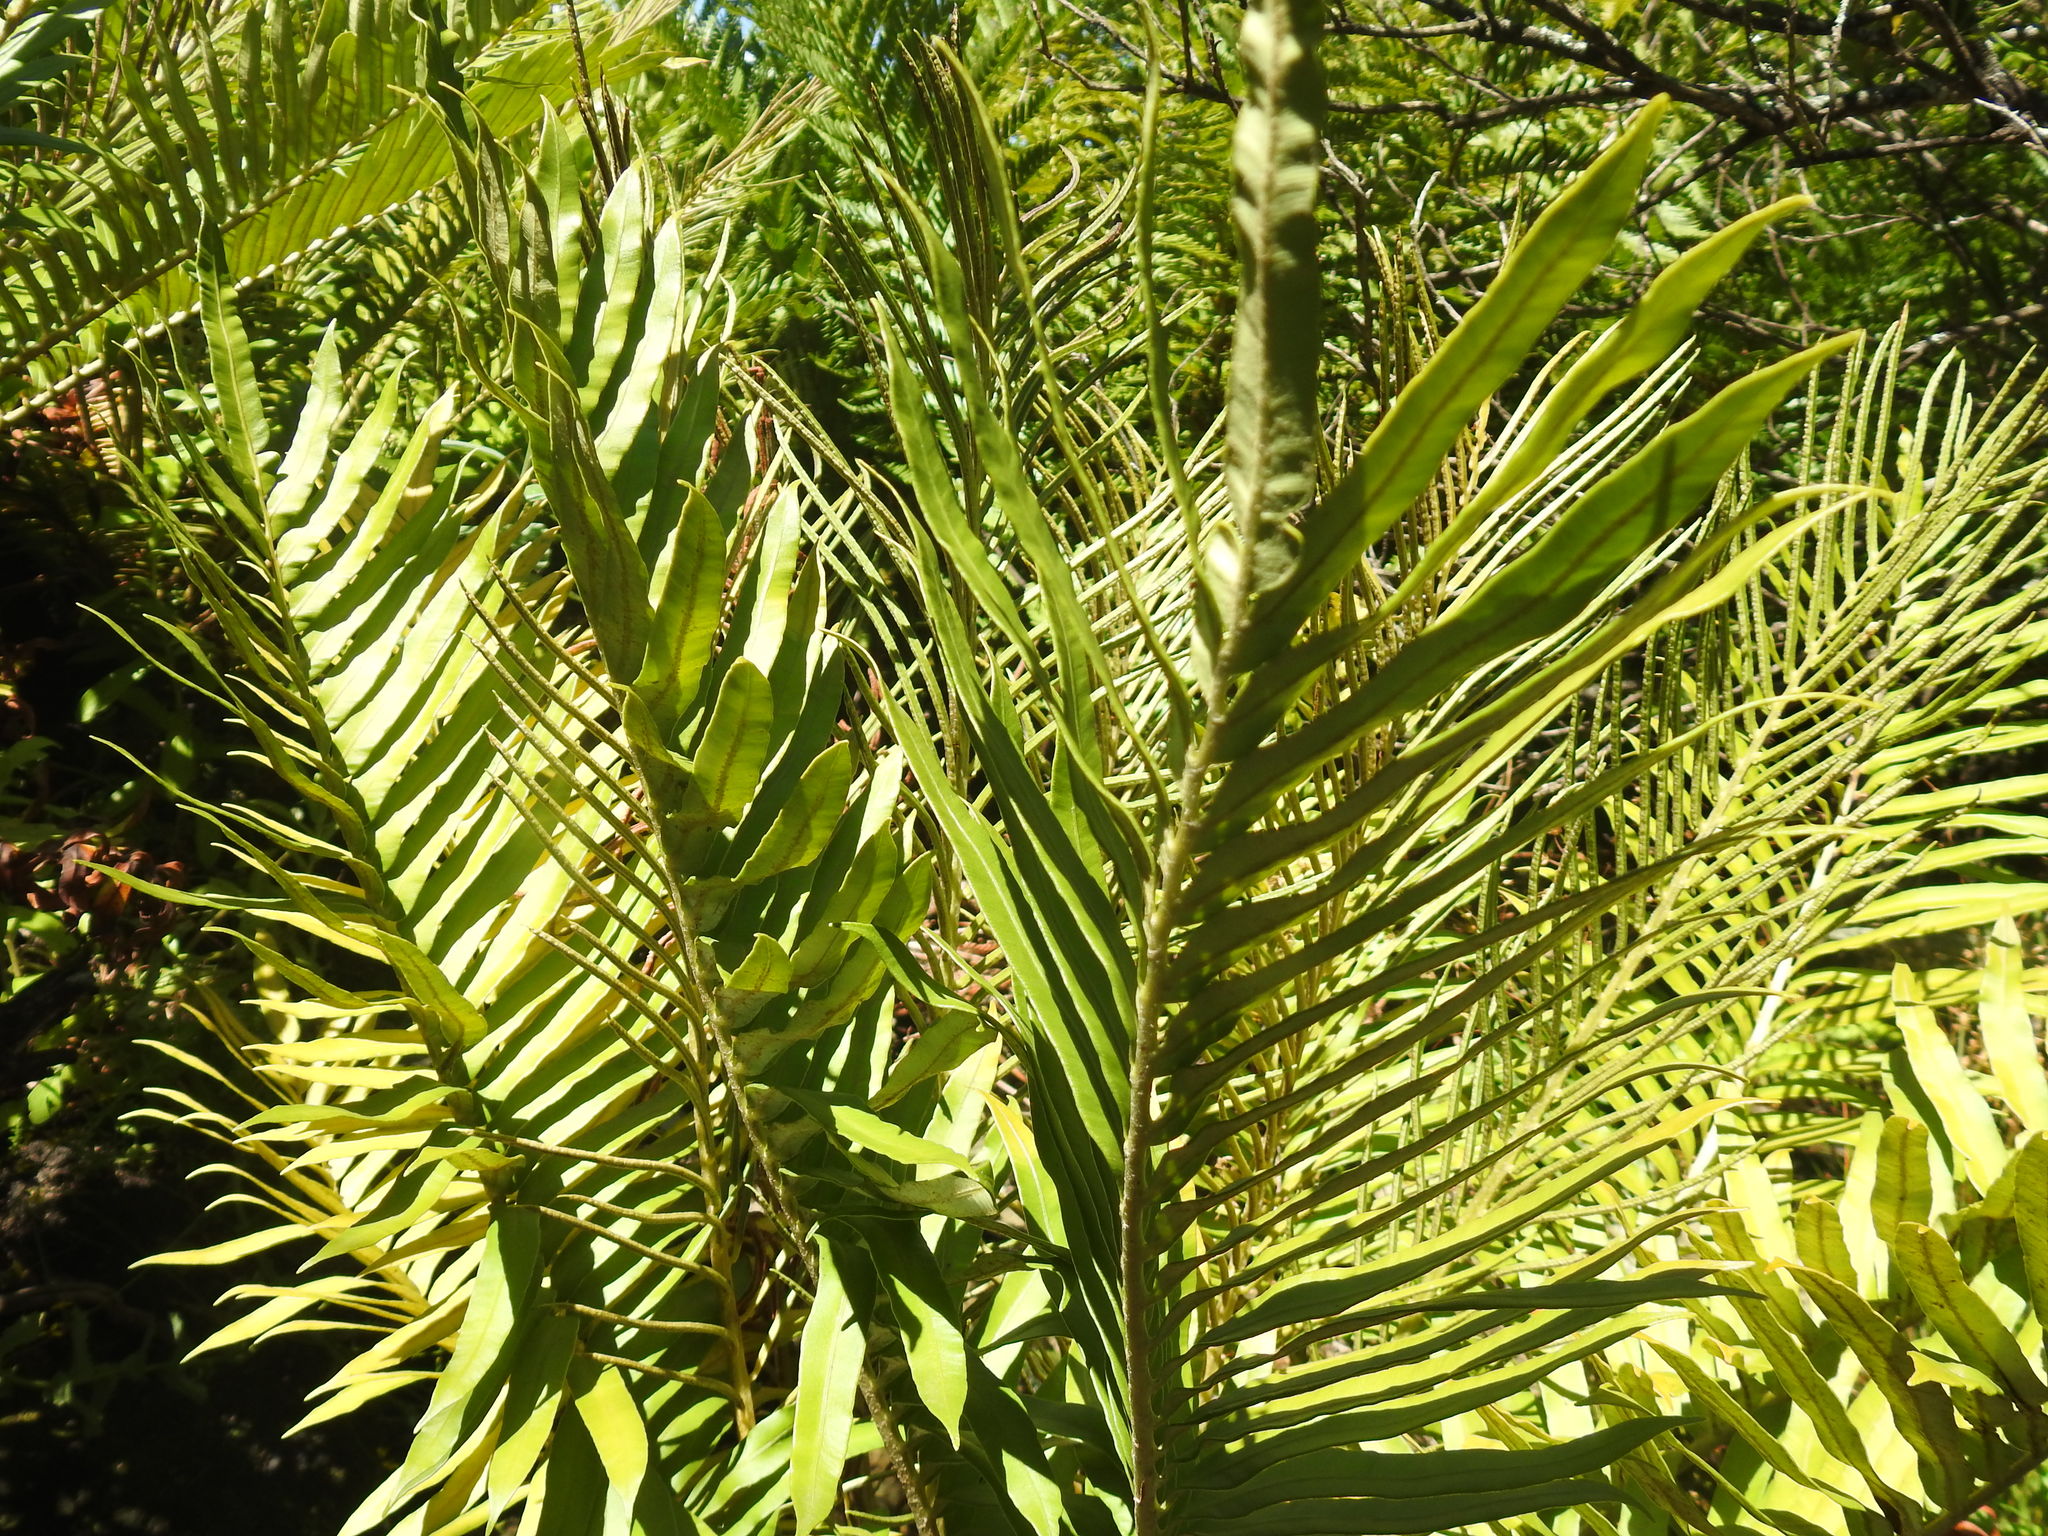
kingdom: Plantae
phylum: Tracheophyta
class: Polypodiopsida
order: Polypodiales
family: Blechnaceae
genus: Lomariocycas
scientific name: Lomariocycas tabularis
